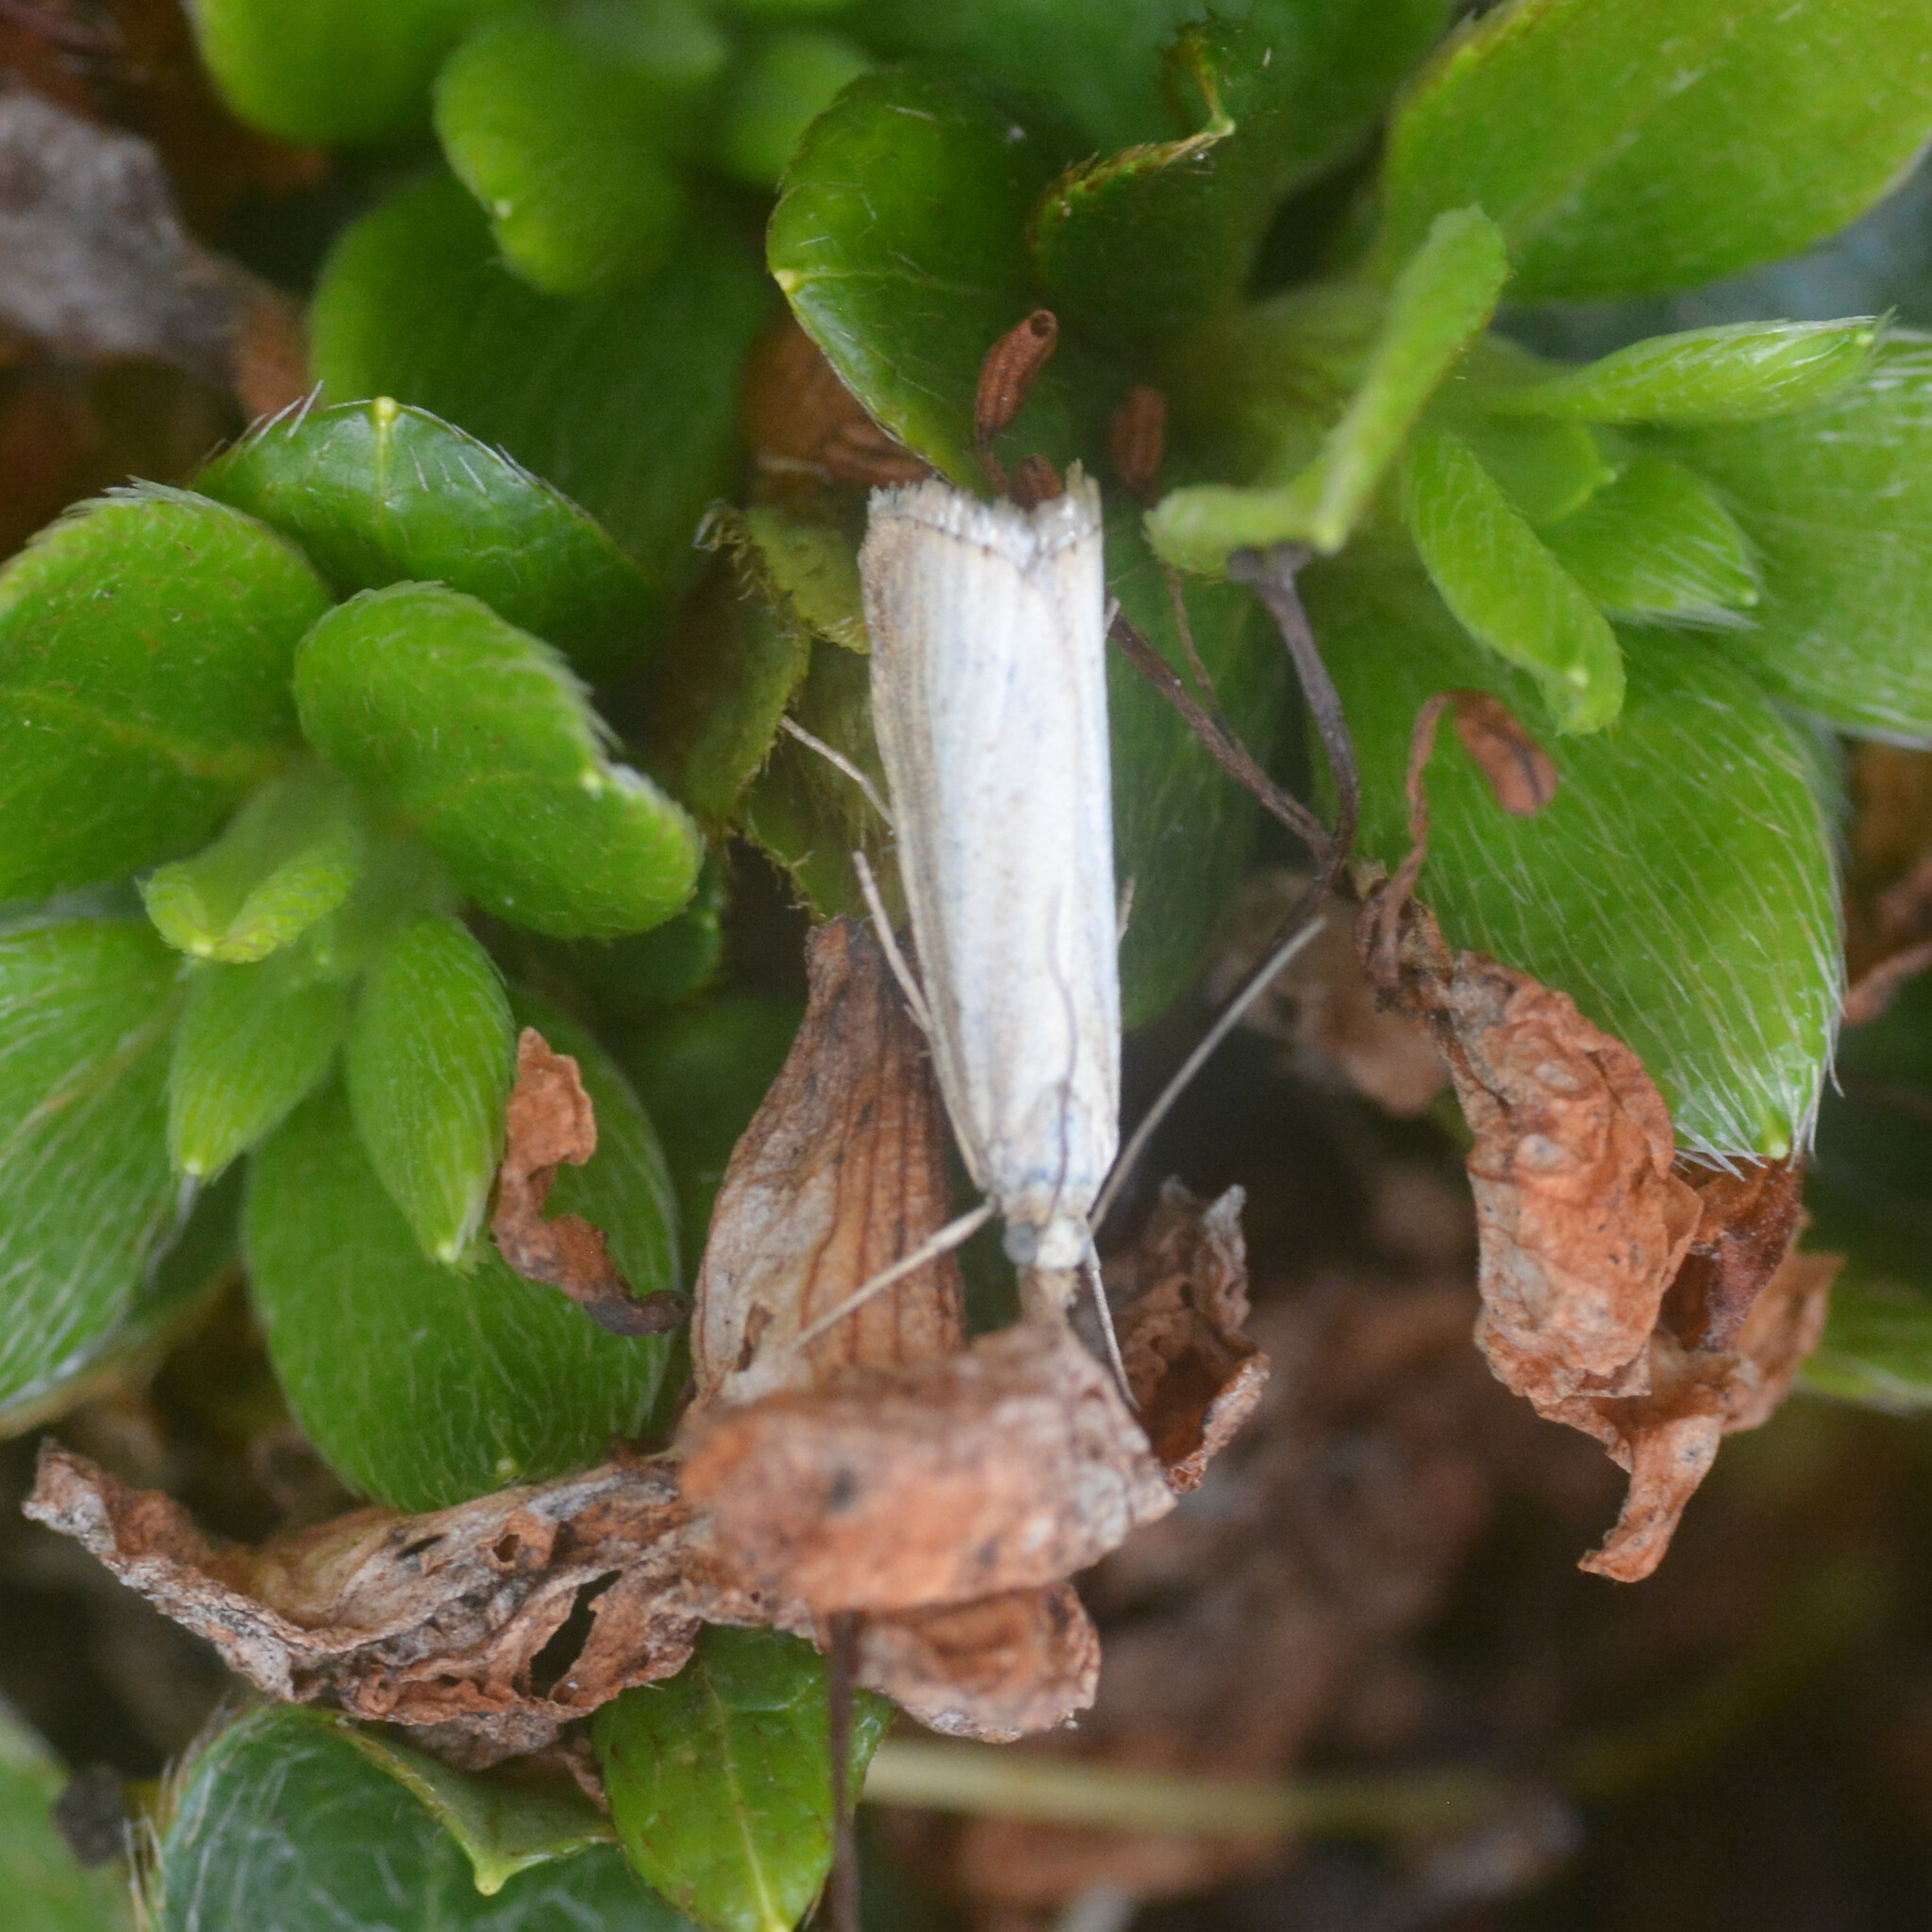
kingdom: Animalia
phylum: Arthropoda
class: Insecta
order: Lepidoptera
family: Crambidae
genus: Agriphila
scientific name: Agriphila straminella
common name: Straw grass-veneer
